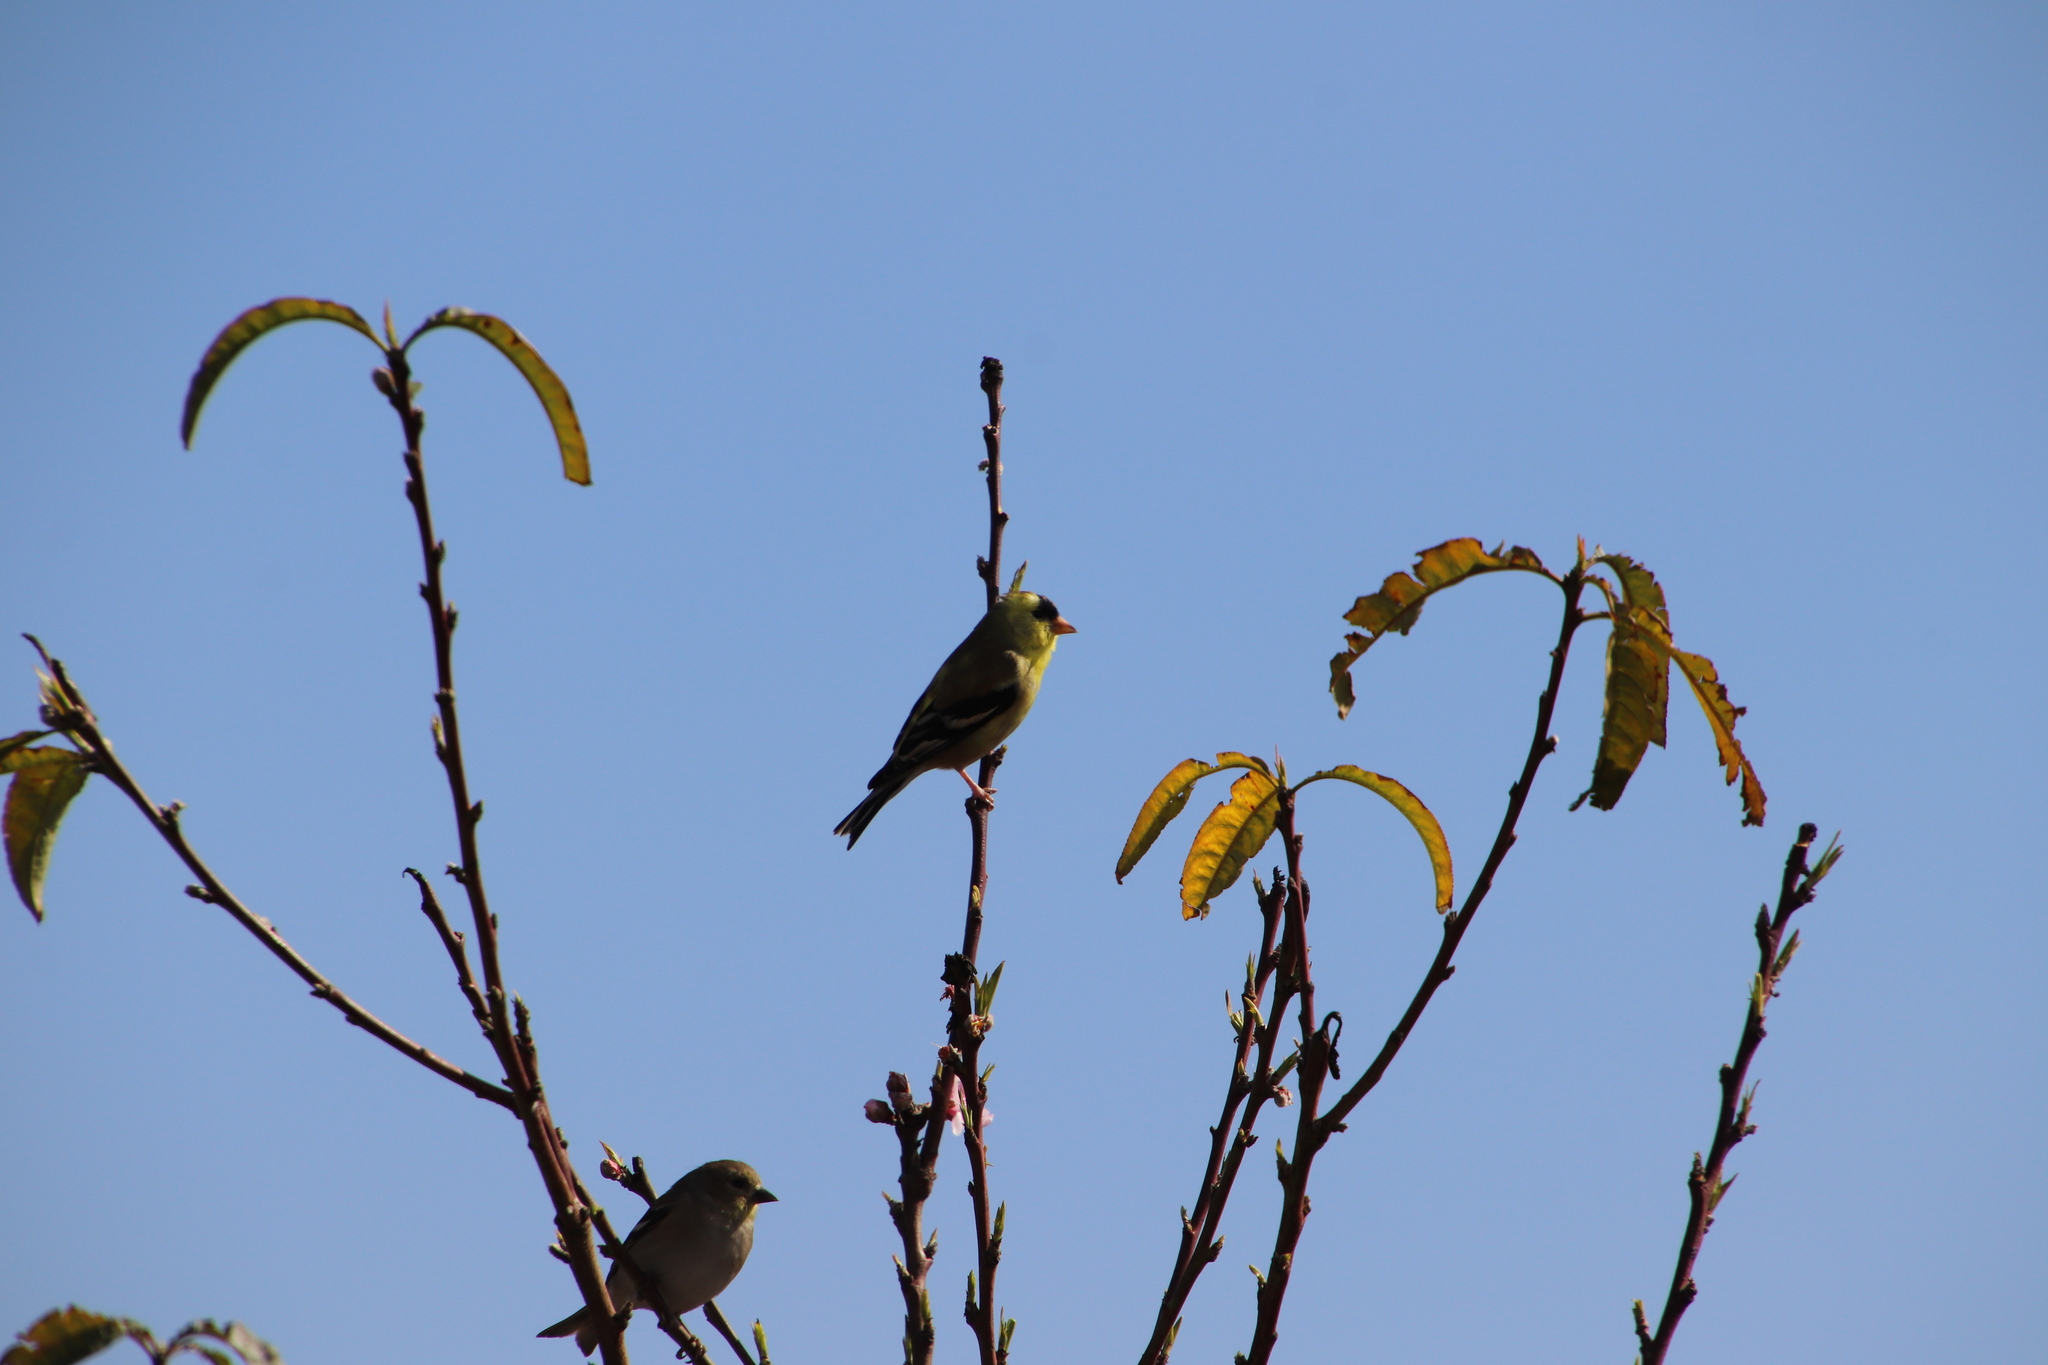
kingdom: Animalia
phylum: Chordata
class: Aves
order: Passeriformes
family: Fringillidae
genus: Spinus
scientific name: Spinus tristis
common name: American goldfinch
